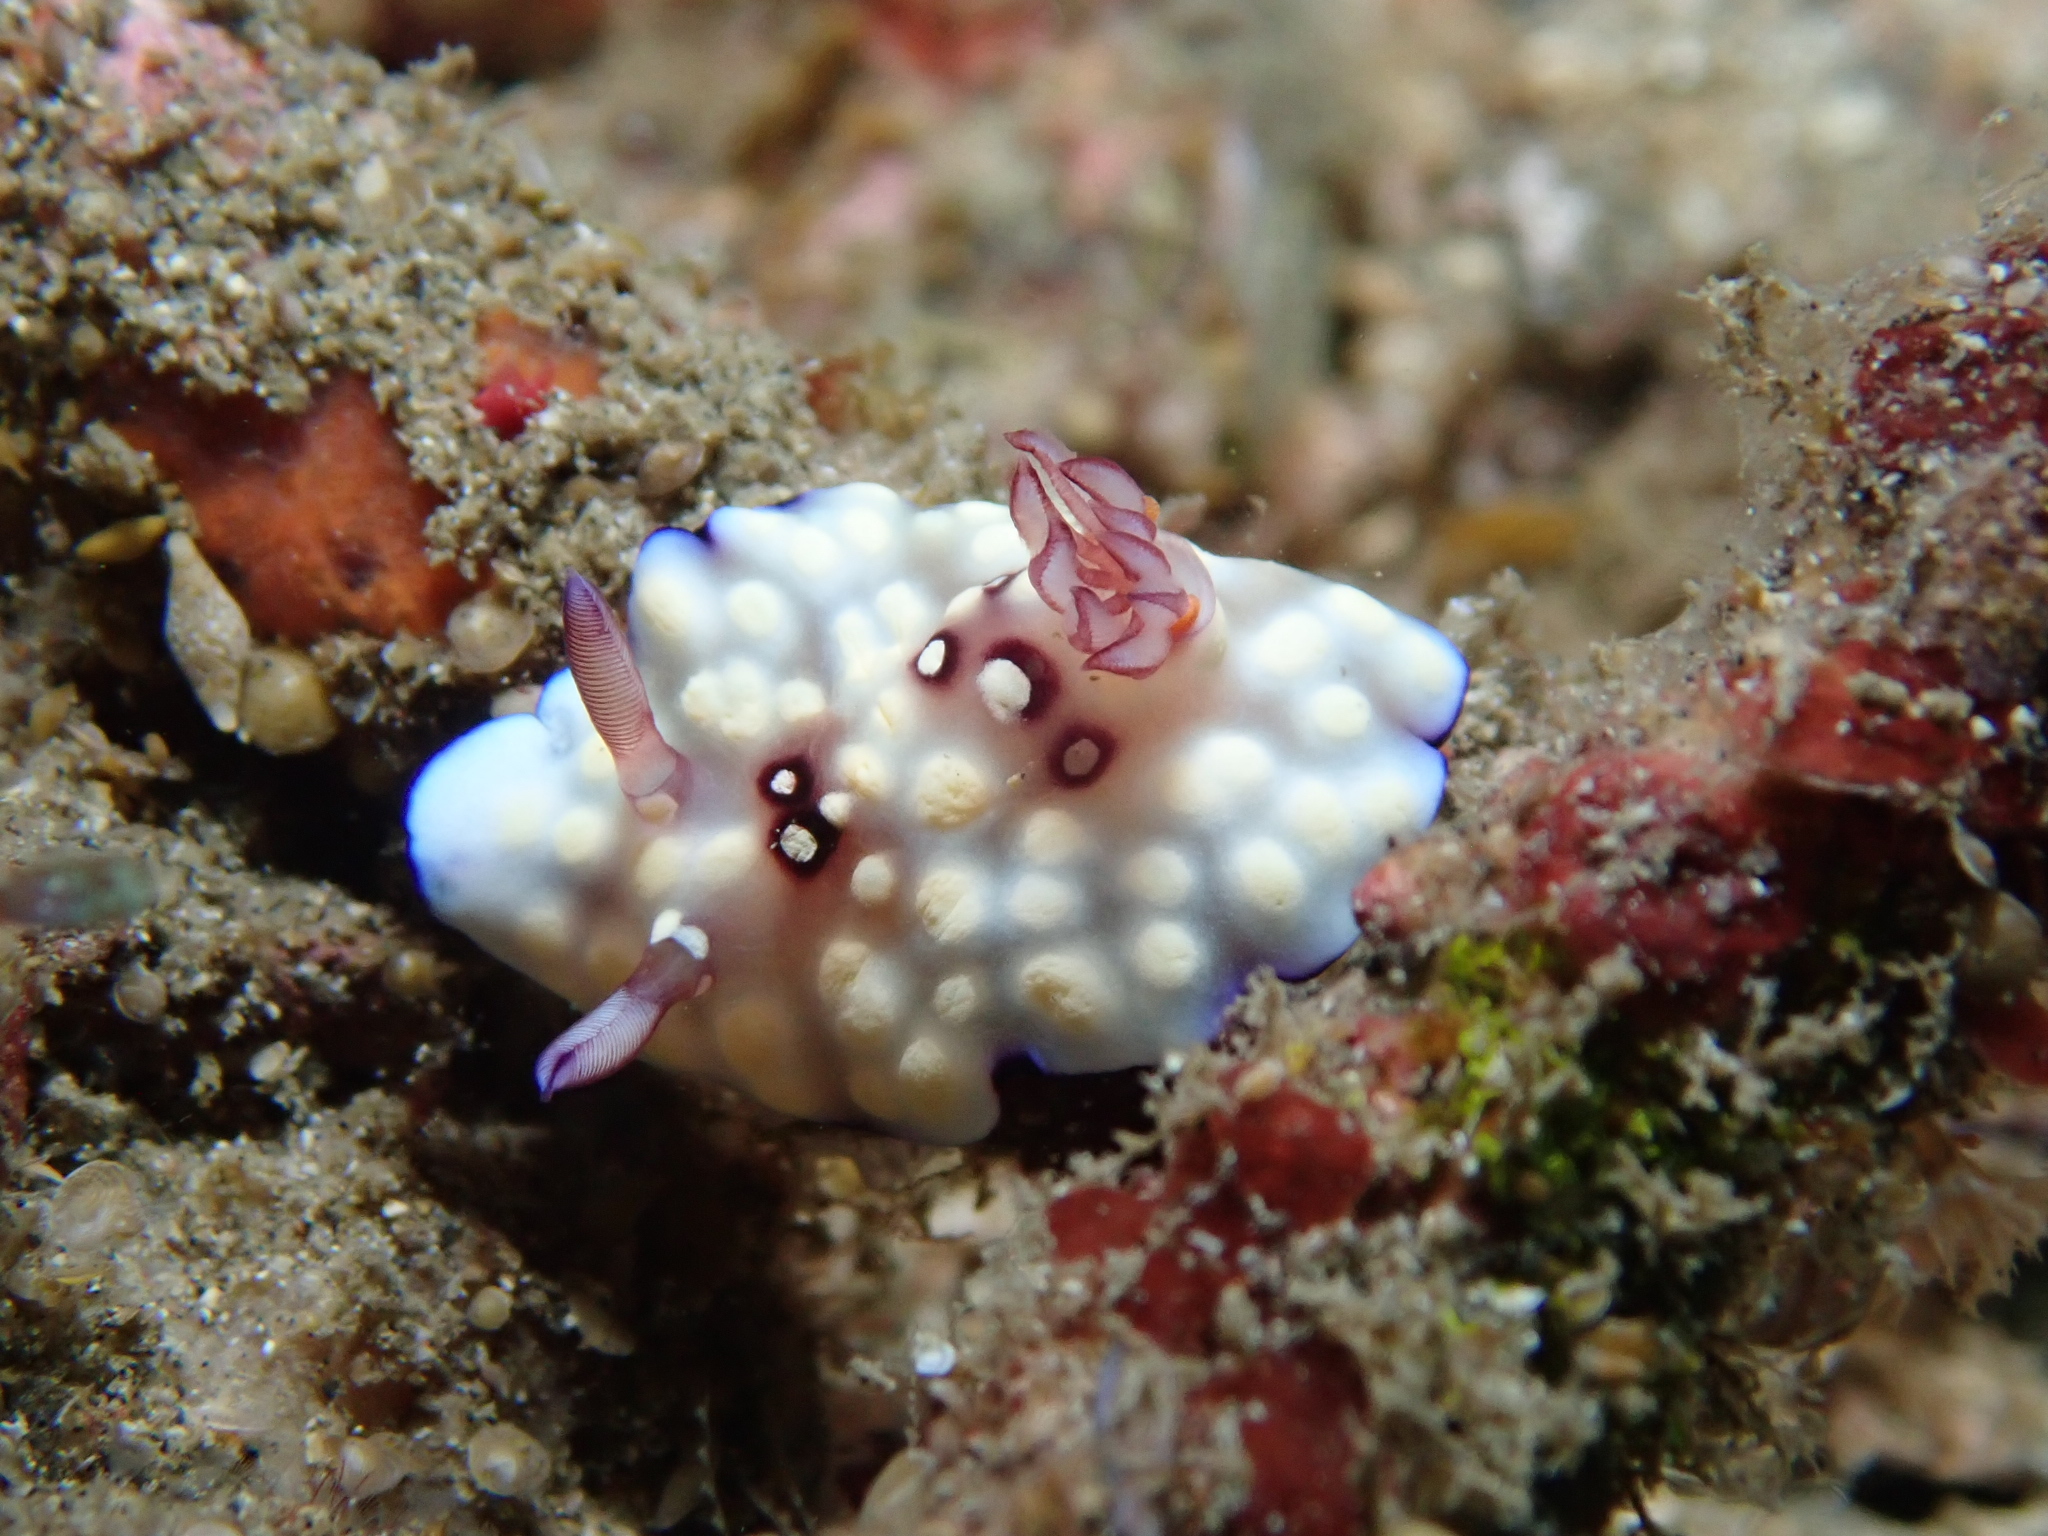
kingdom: Animalia
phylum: Mollusca
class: Gastropoda
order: Nudibranchia
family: Chromodorididae
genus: Goniobranchus
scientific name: Goniobranchus hintuanensis
